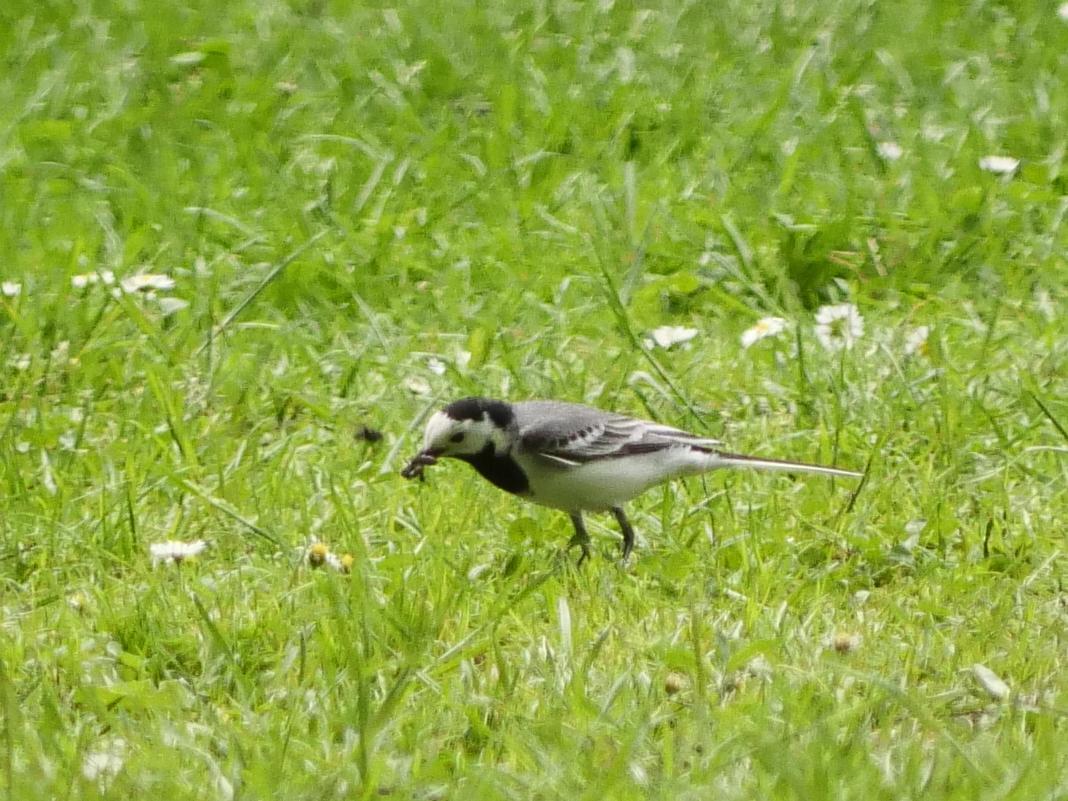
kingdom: Animalia
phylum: Chordata
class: Aves
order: Passeriformes
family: Motacillidae
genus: Motacilla
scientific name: Motacilla alba
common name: White wagtail
